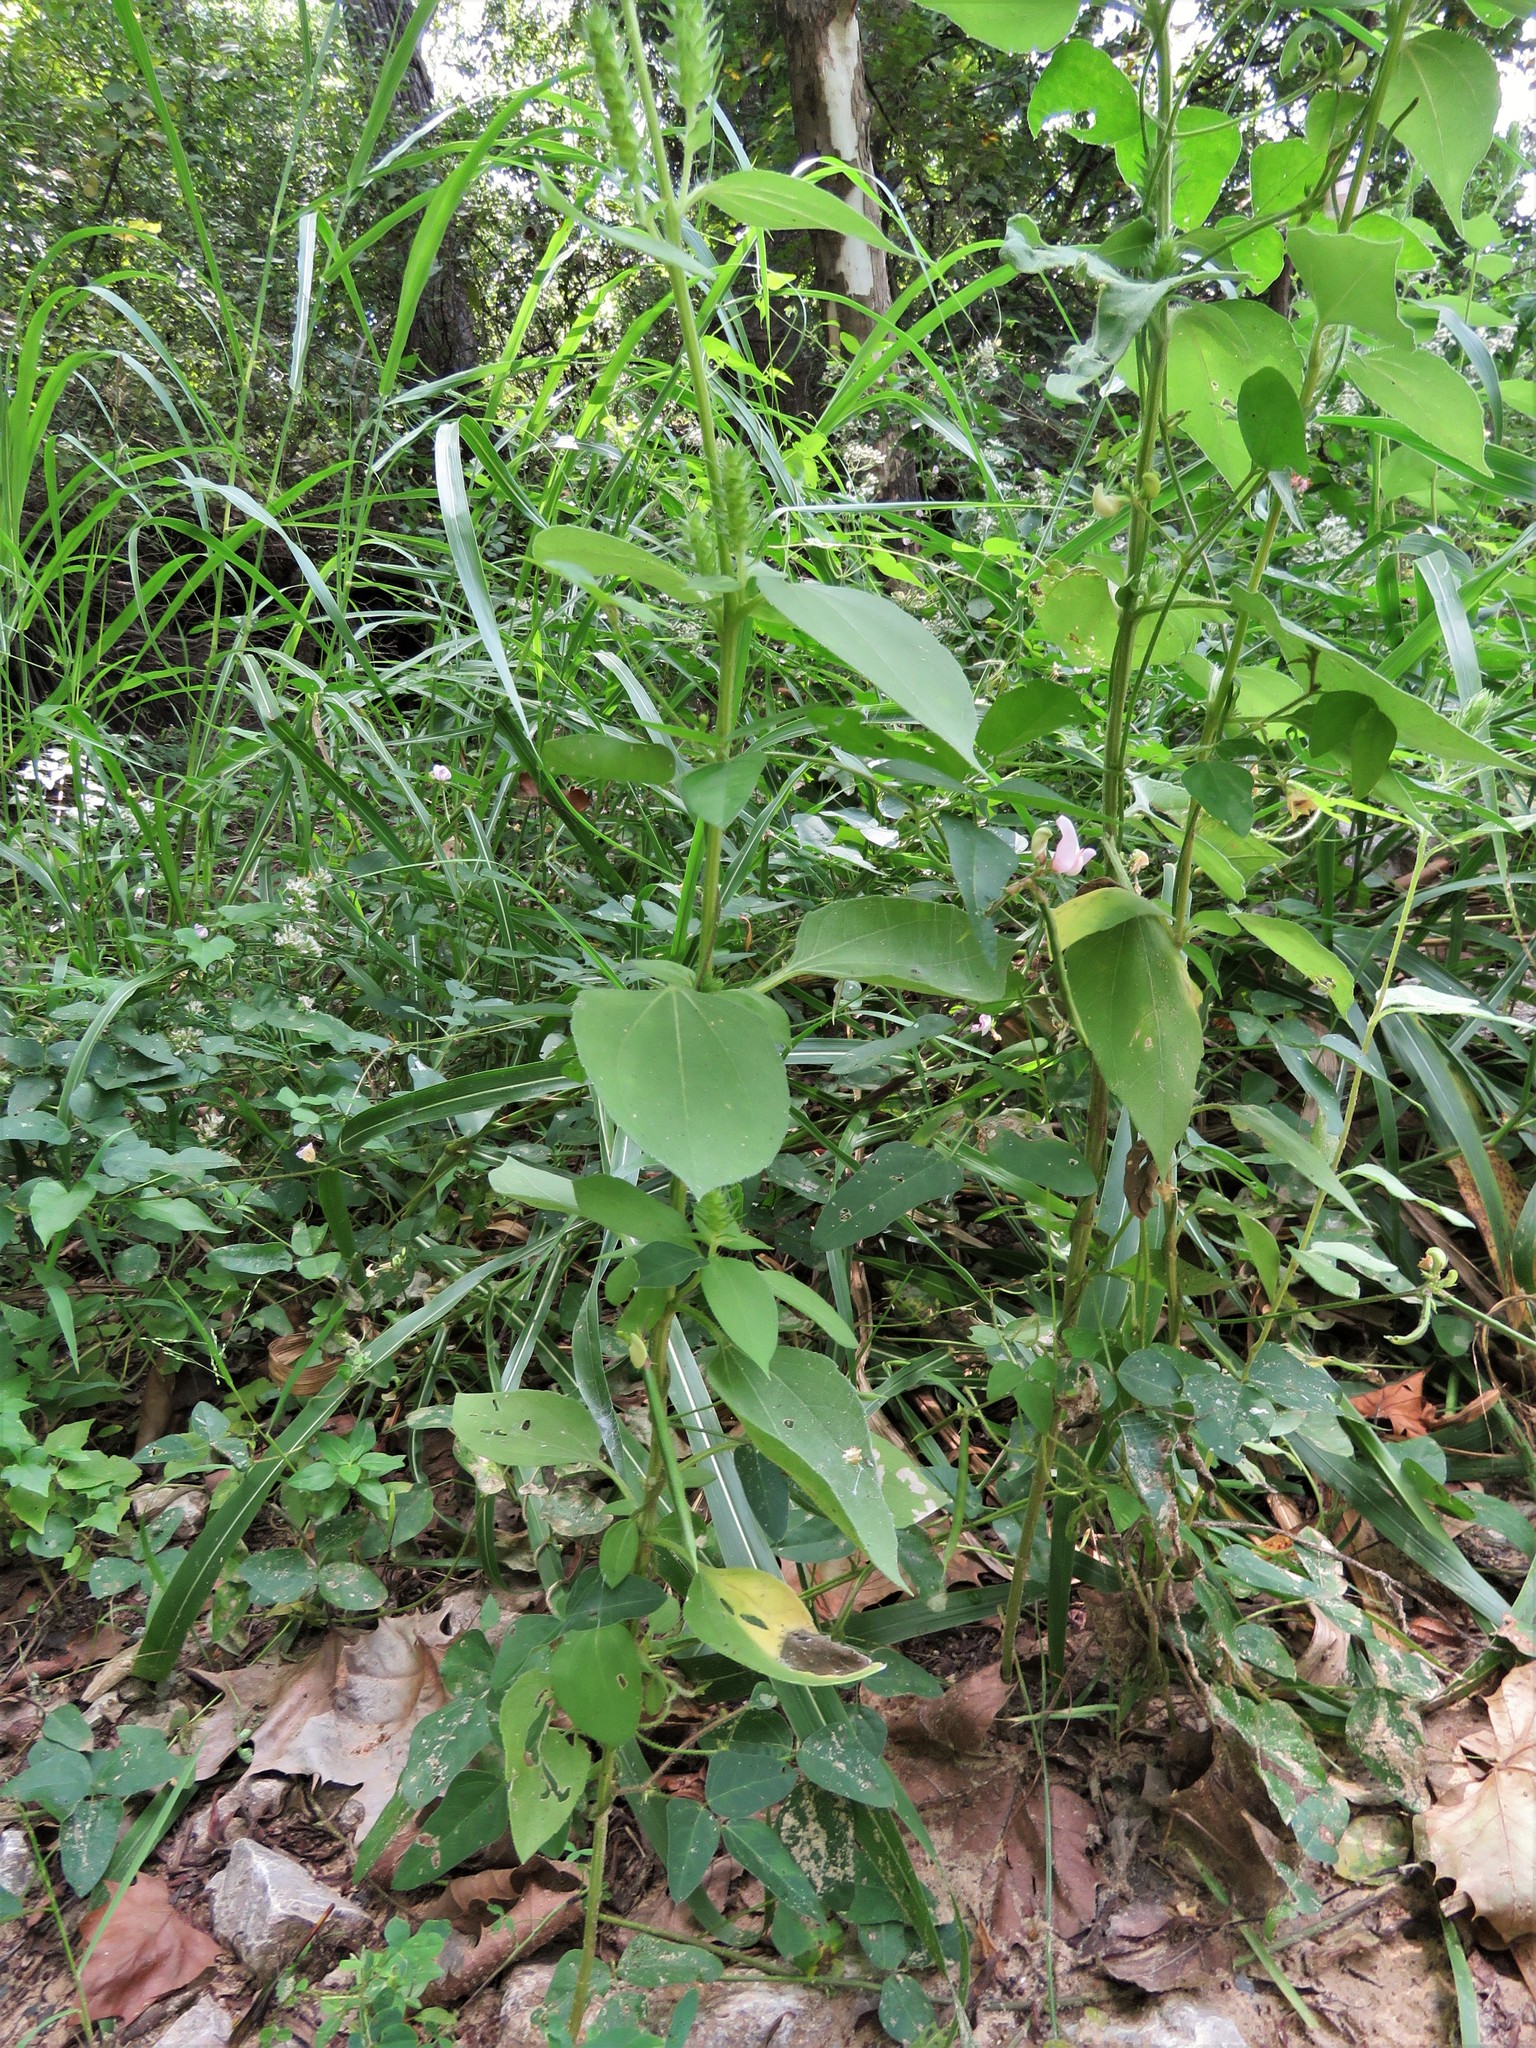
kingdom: Plantae
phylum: Tracheophyta
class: Magnoliopsida
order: Asterales
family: Asteraceae
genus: Iva
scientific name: Iva annua
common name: Marsh-elder
